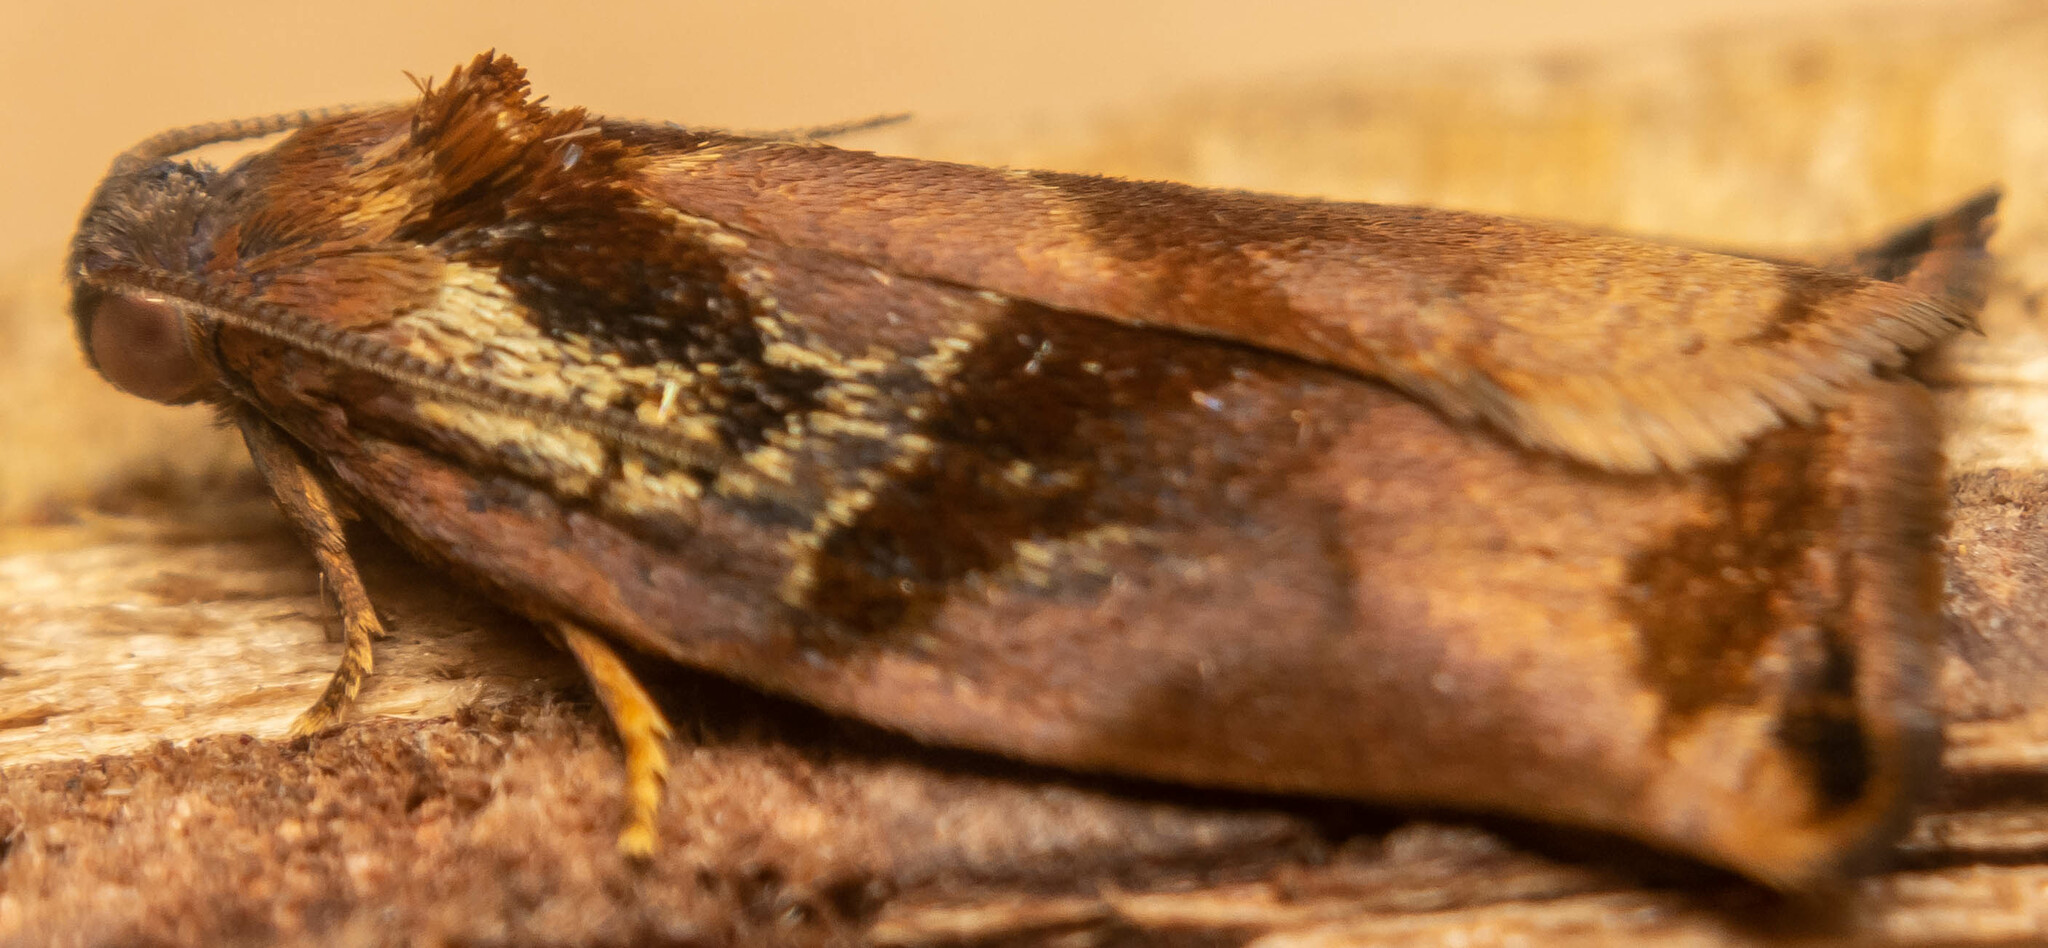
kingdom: Animalia
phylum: Arthropoda
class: Insecta
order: Lepidoptera
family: Tortricidae
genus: Archips
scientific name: Archips podana
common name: Large fruit-tree tortrix
